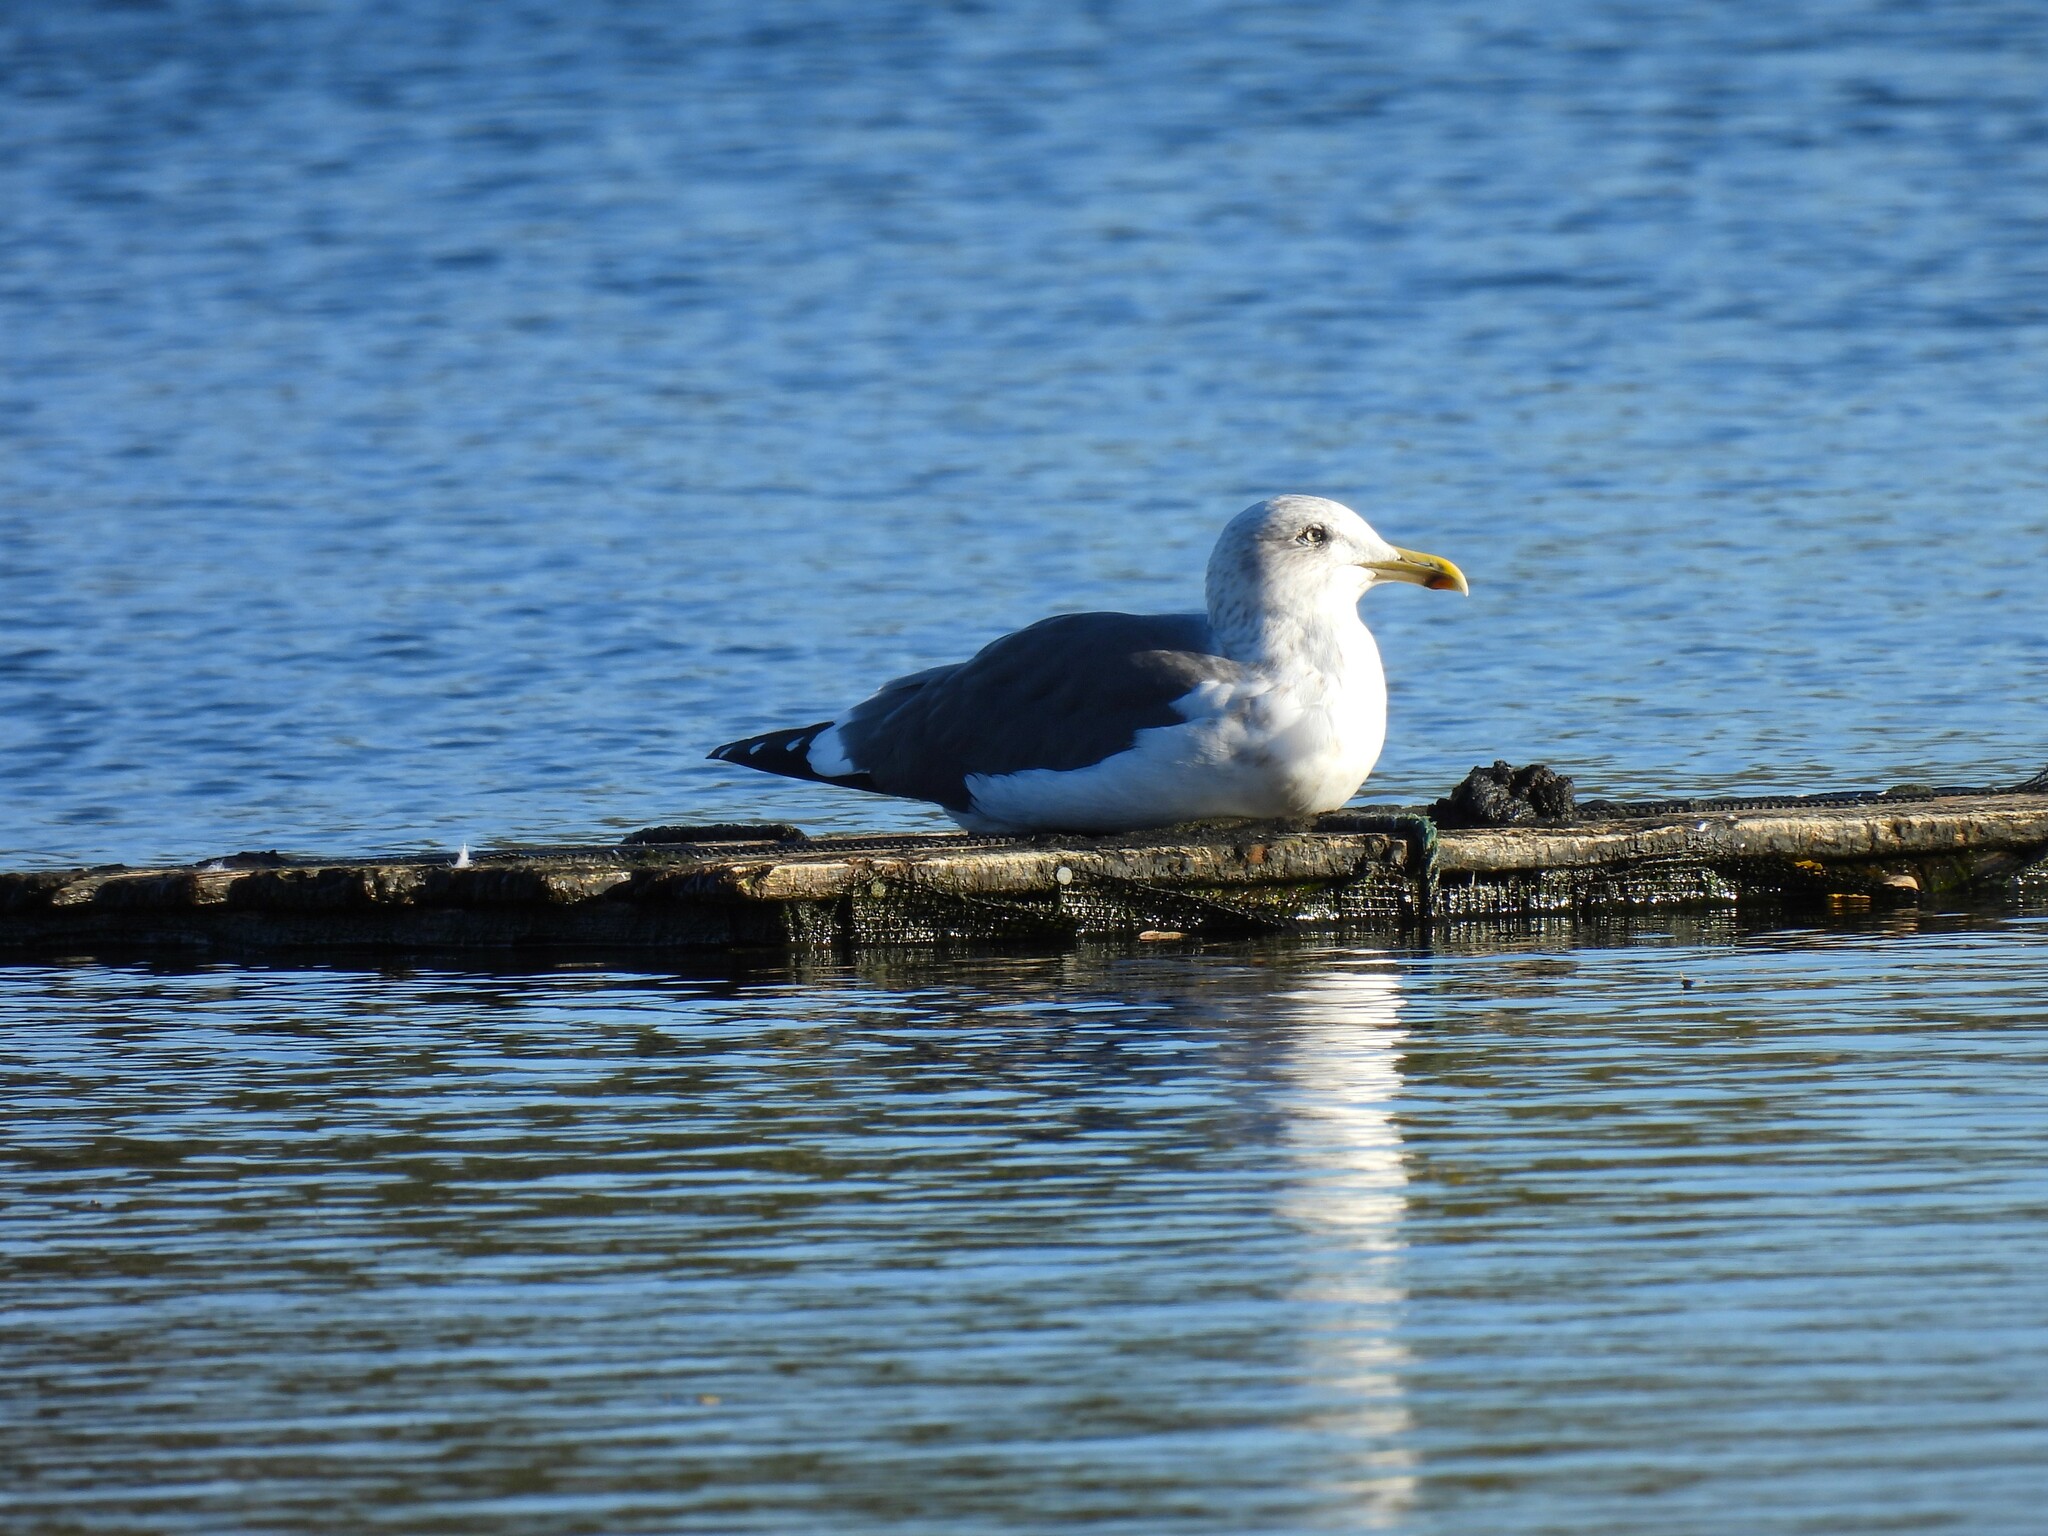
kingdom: Animalia
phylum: Chordata
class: Aves
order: Charadriiformes
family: Laridae
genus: Larus
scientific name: Larus fuscus
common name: Lesser black-backed gull
